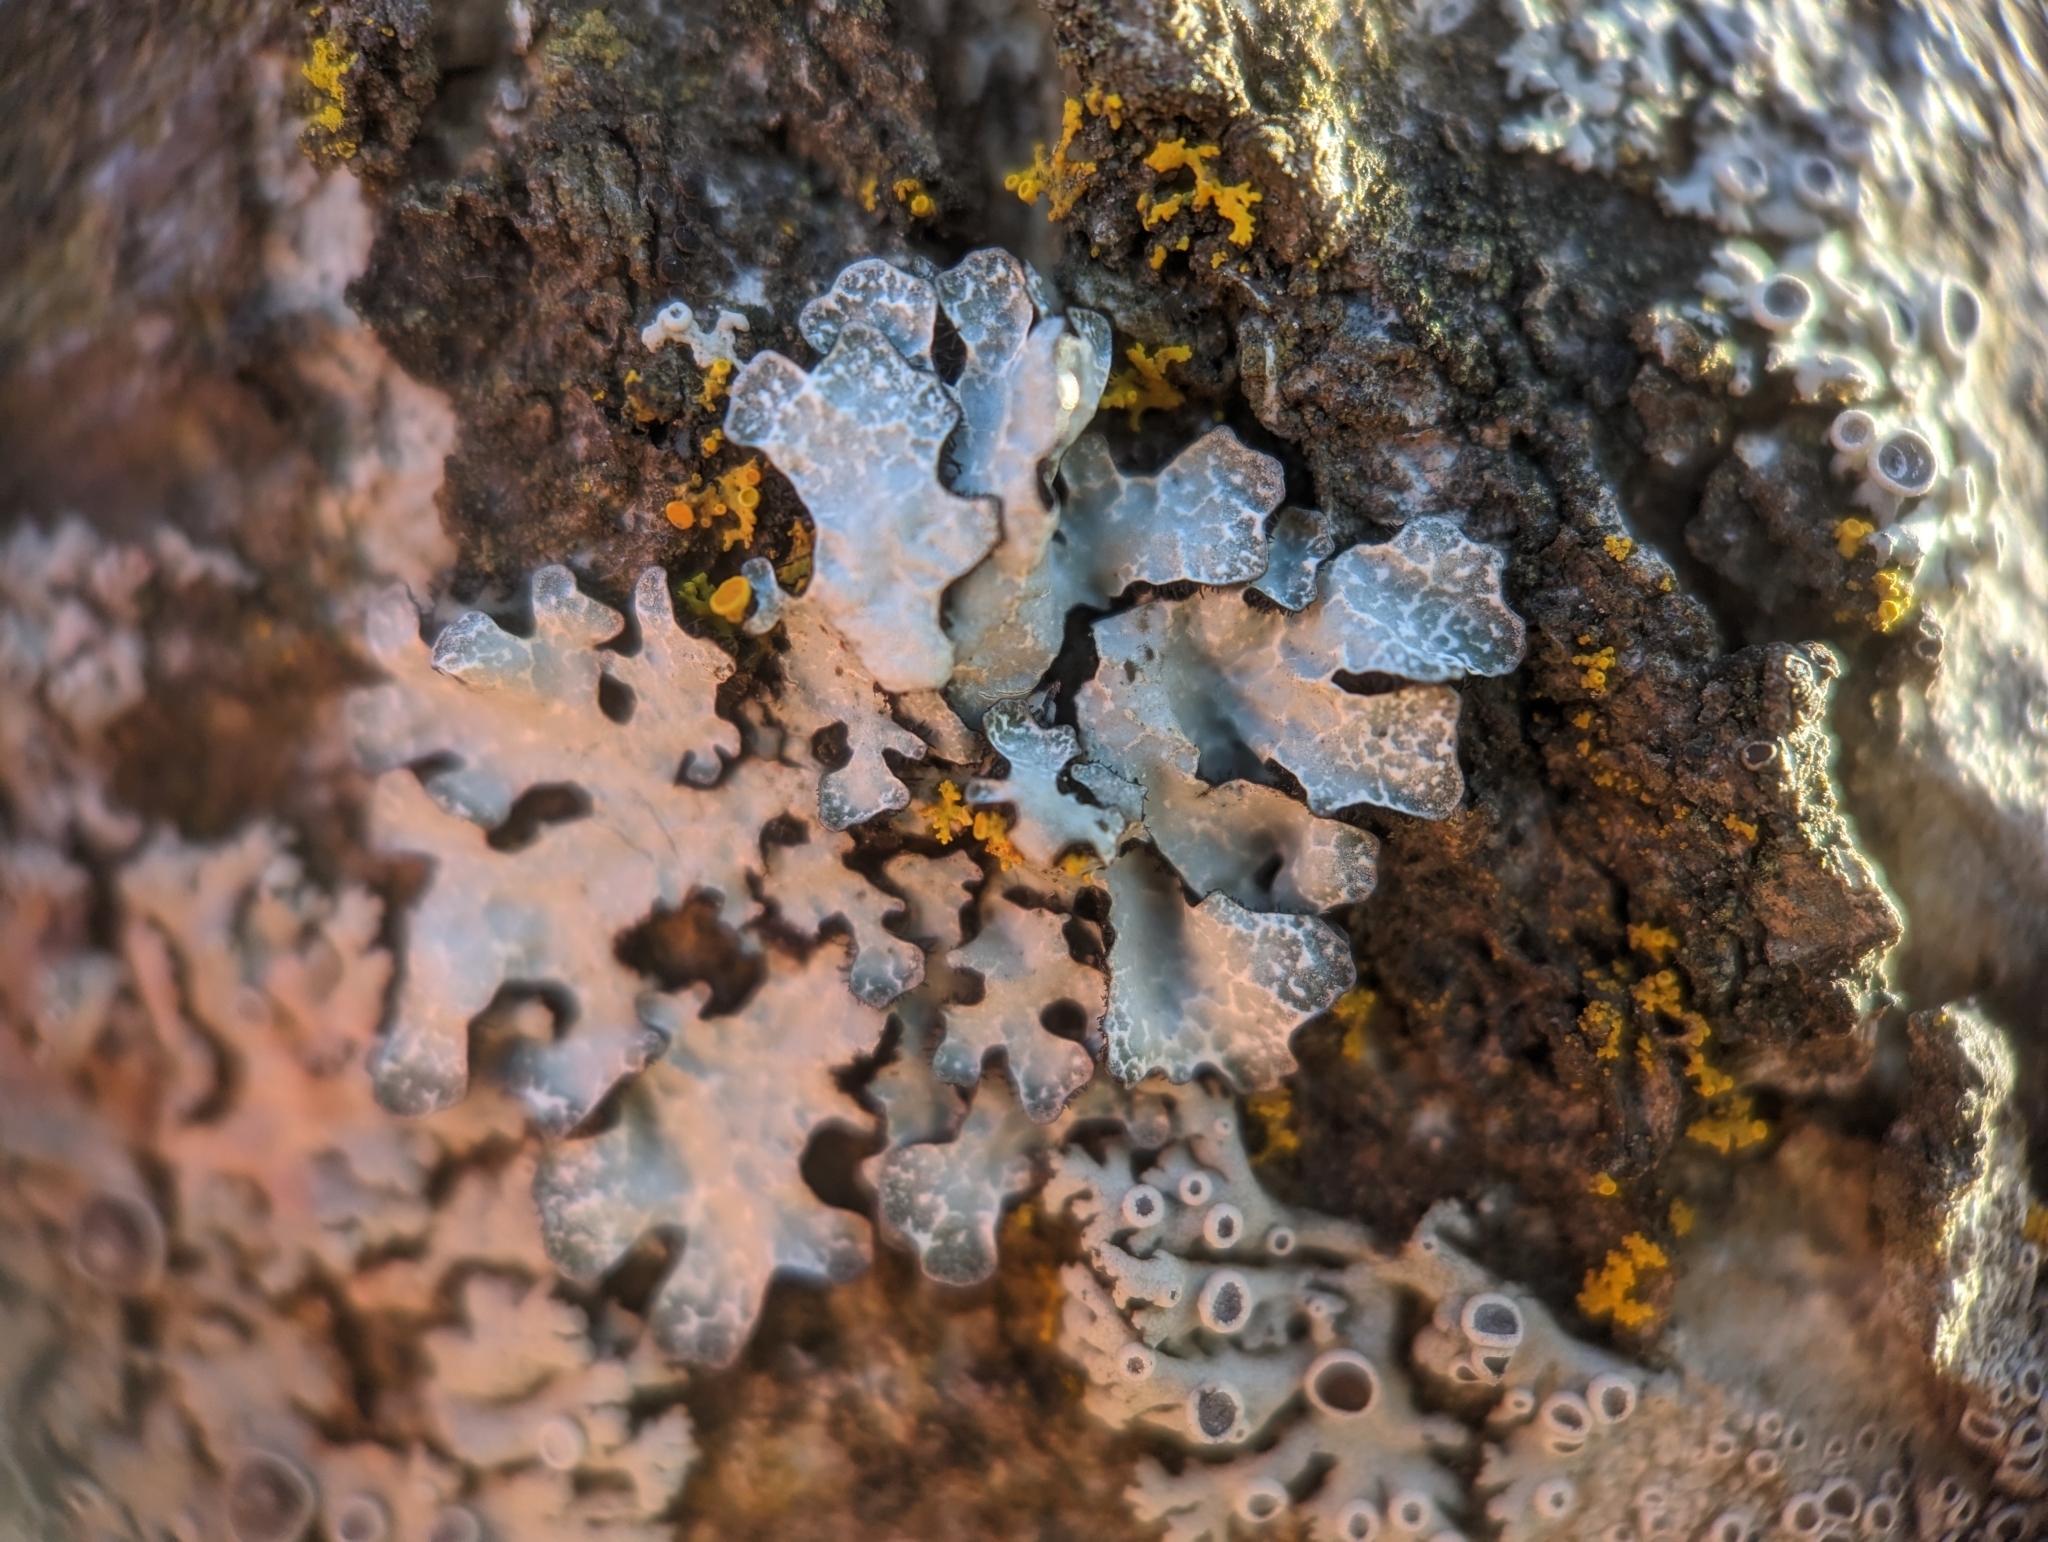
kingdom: Fungi
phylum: Ascomycota
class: Lecanoromycetes
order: Lecanorales
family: Parmeliaceae
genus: Parmelia
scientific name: Parmelia sulcata
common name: Netted shield lichen
